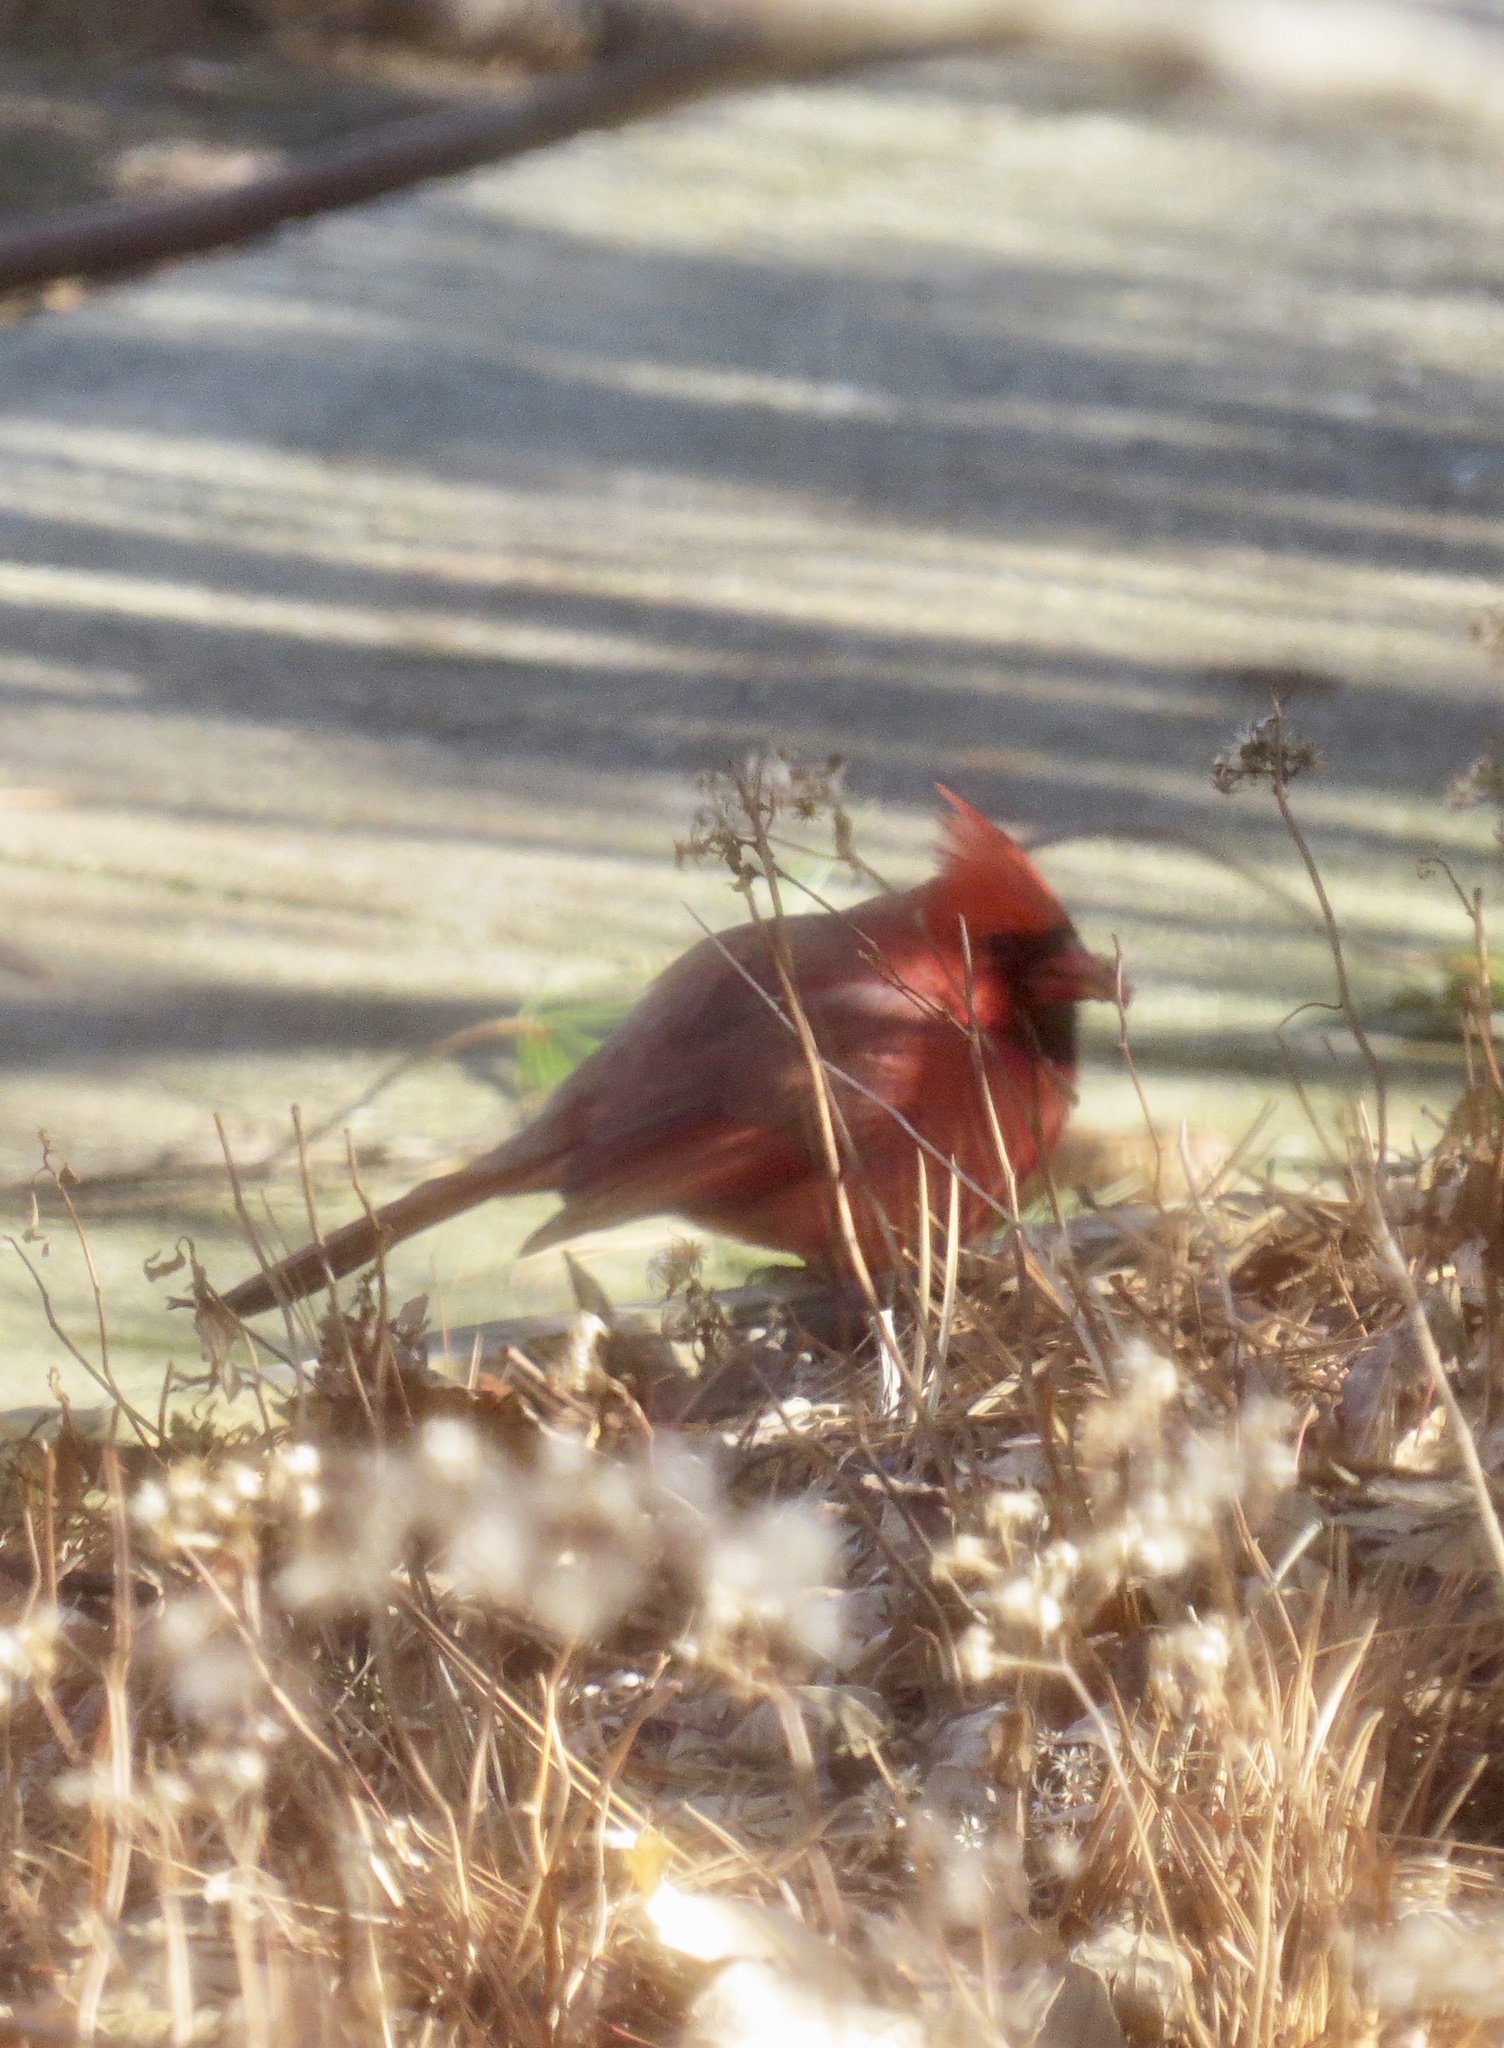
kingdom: Animalia
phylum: Chordata
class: Aves
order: Passeriformes
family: Cardinalidae
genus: Cardinalis
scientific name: Cardinalis cardinalis
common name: Northern cardinal
